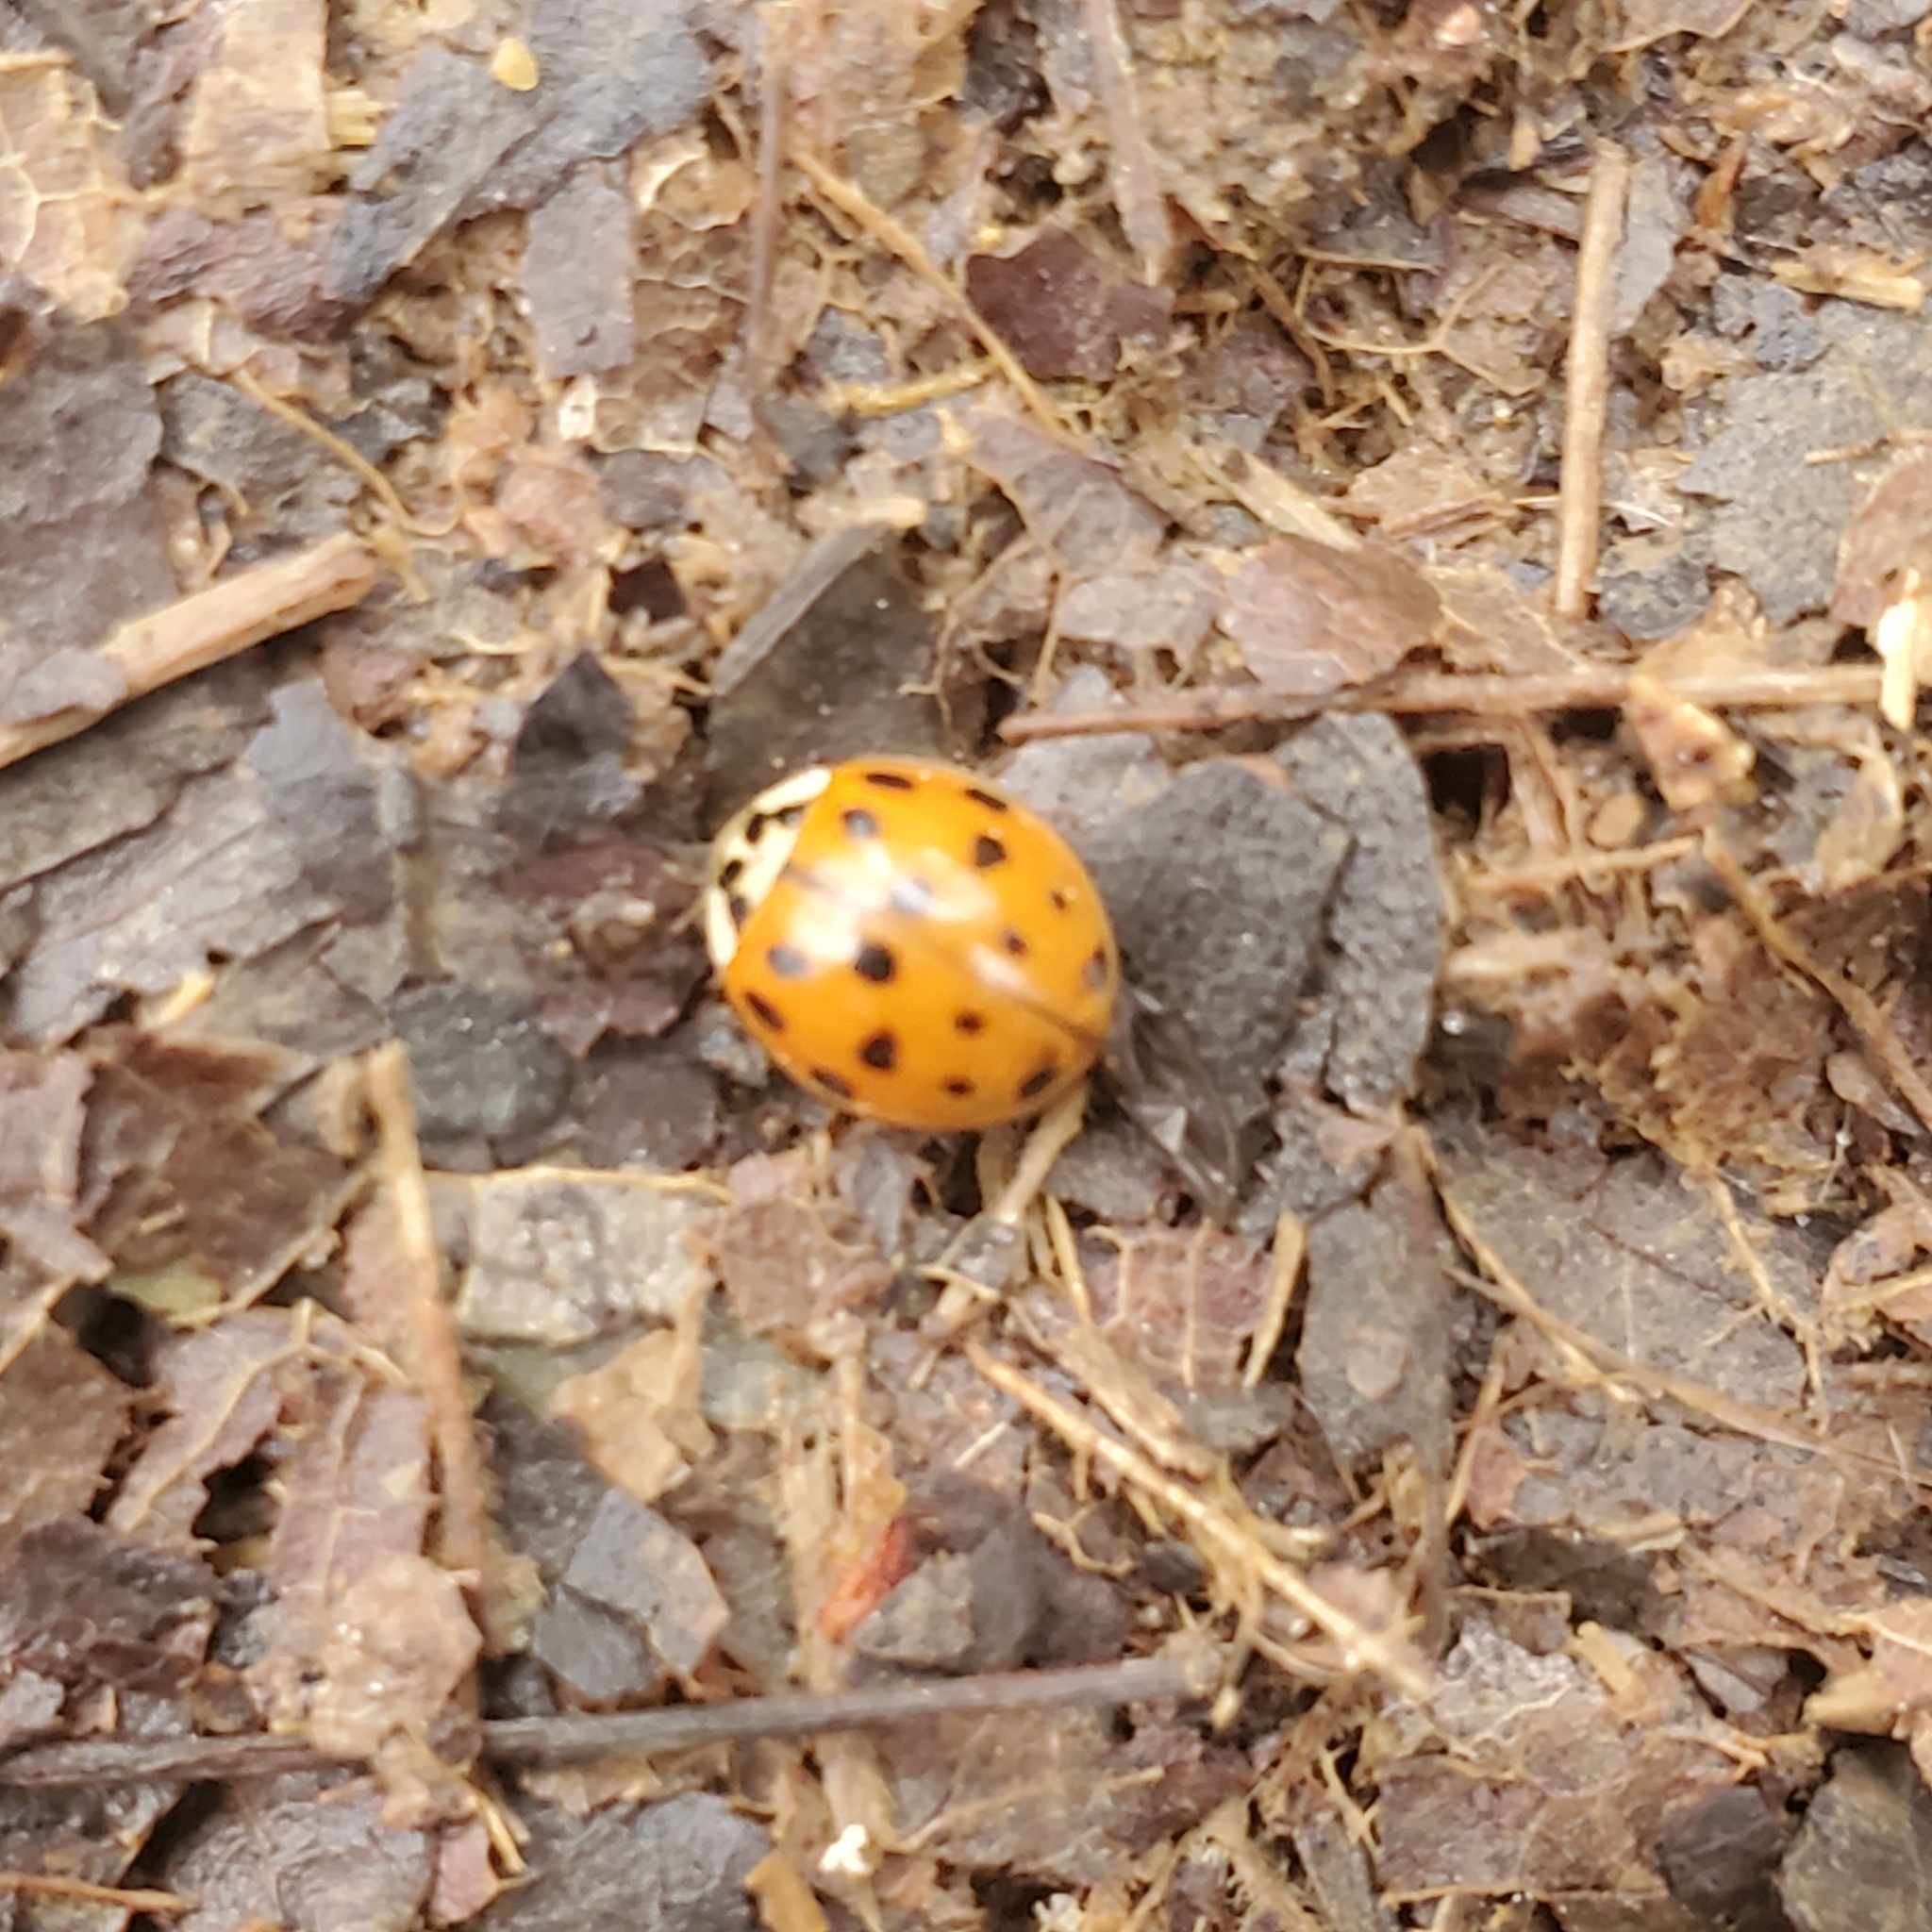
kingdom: Animalia
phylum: Arthropoda
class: Insecta
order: Coleoptera
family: Coccinellidae
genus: Harmonia
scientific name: Harmonia axyridis
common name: Harlequin ladybird
